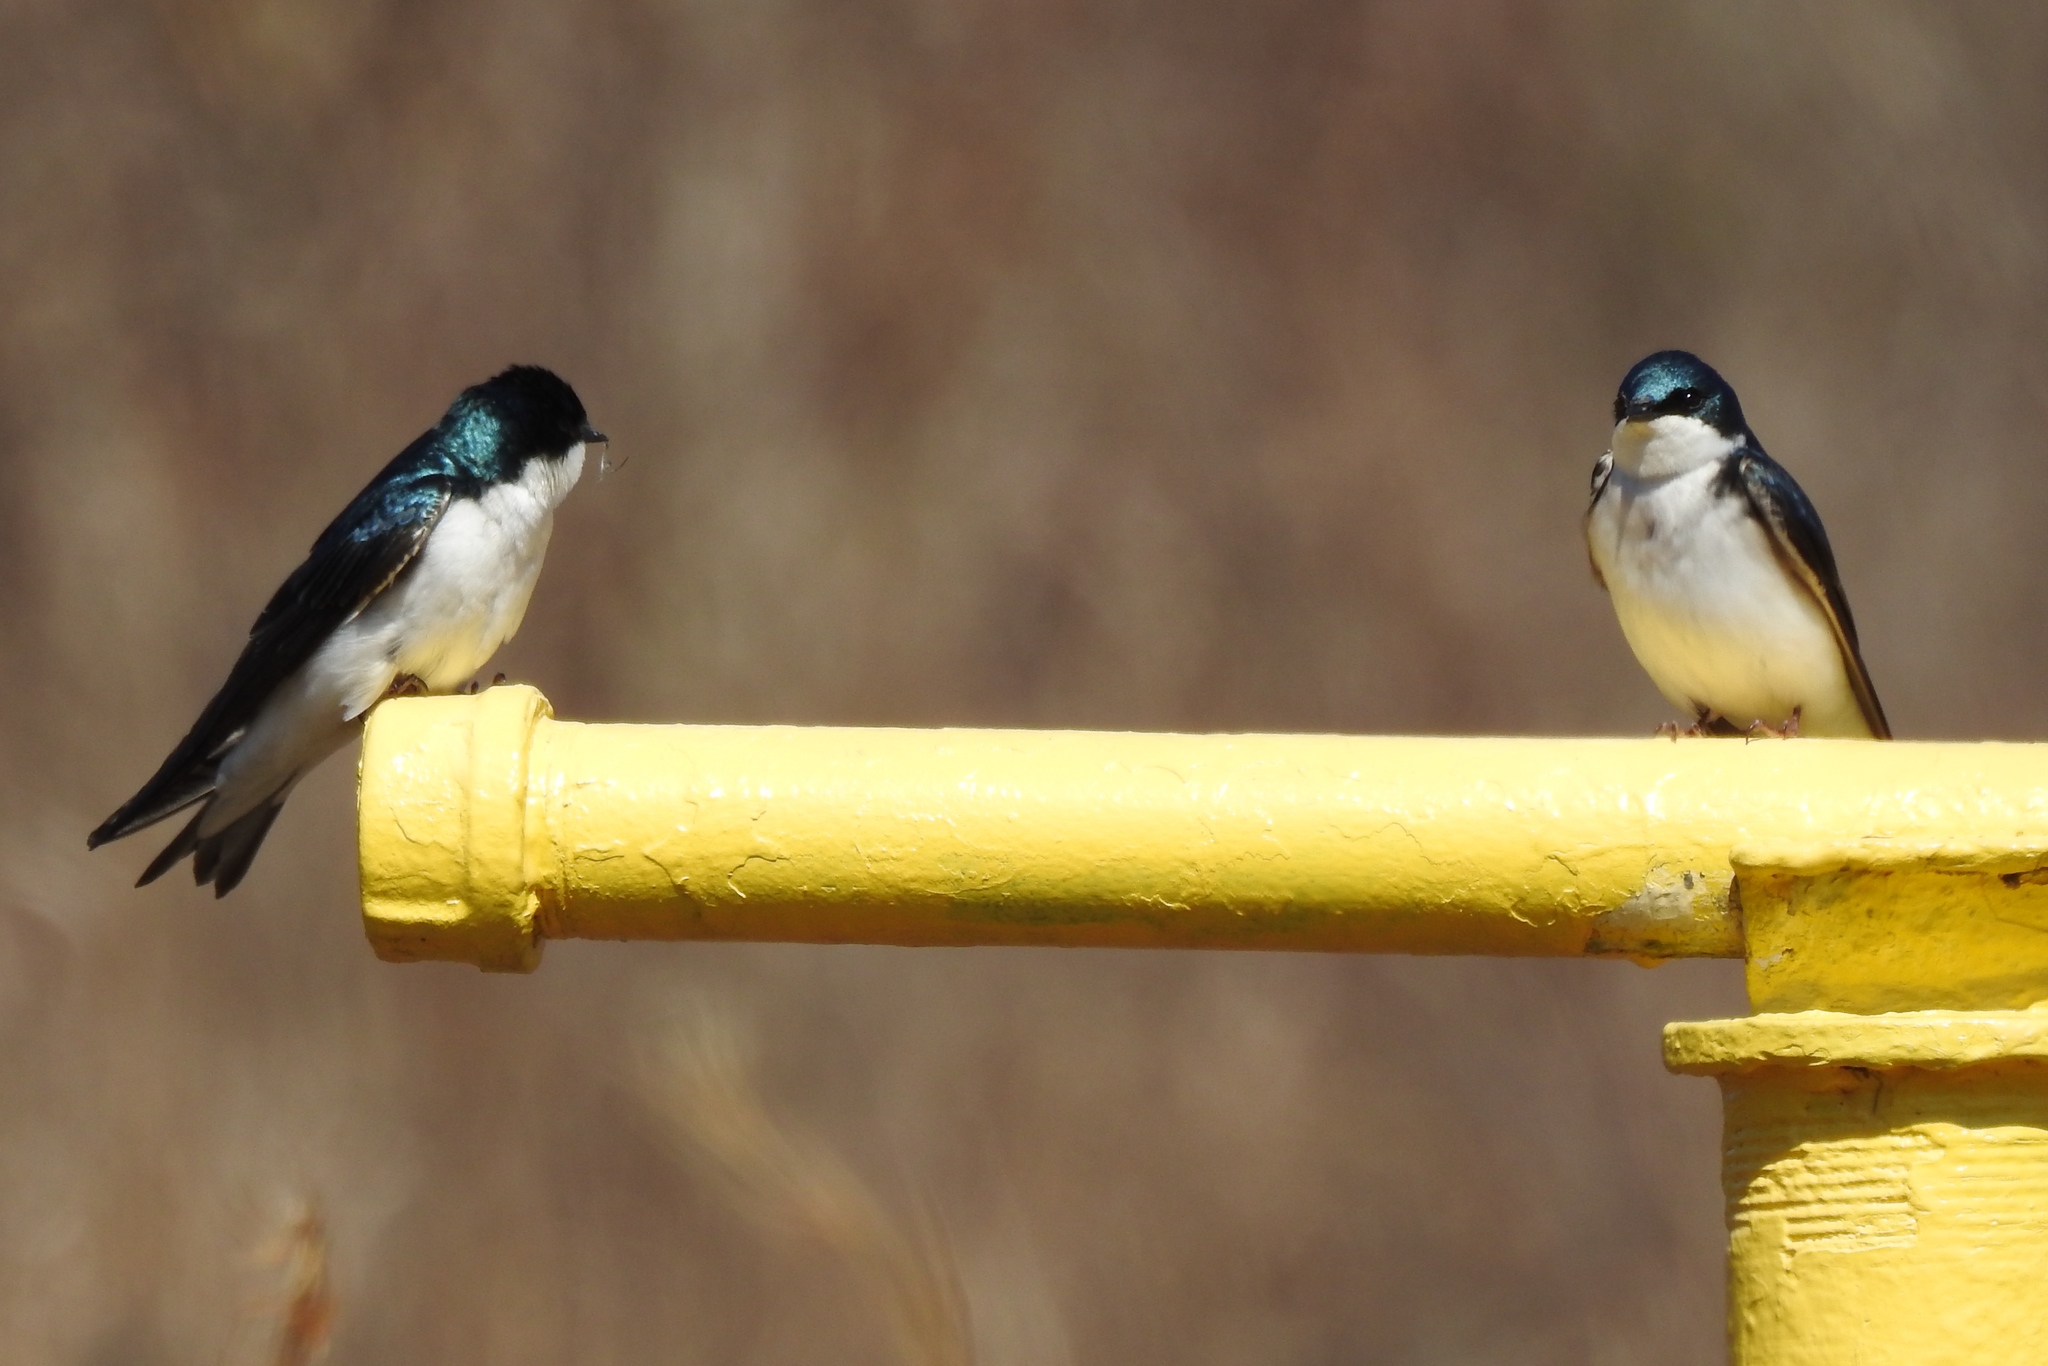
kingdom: Animalia
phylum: Chordata
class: Aves
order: Passeriformes
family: Hirundinidae
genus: Tachycineta
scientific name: Tachycineta bicolor
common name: Tree swallow
